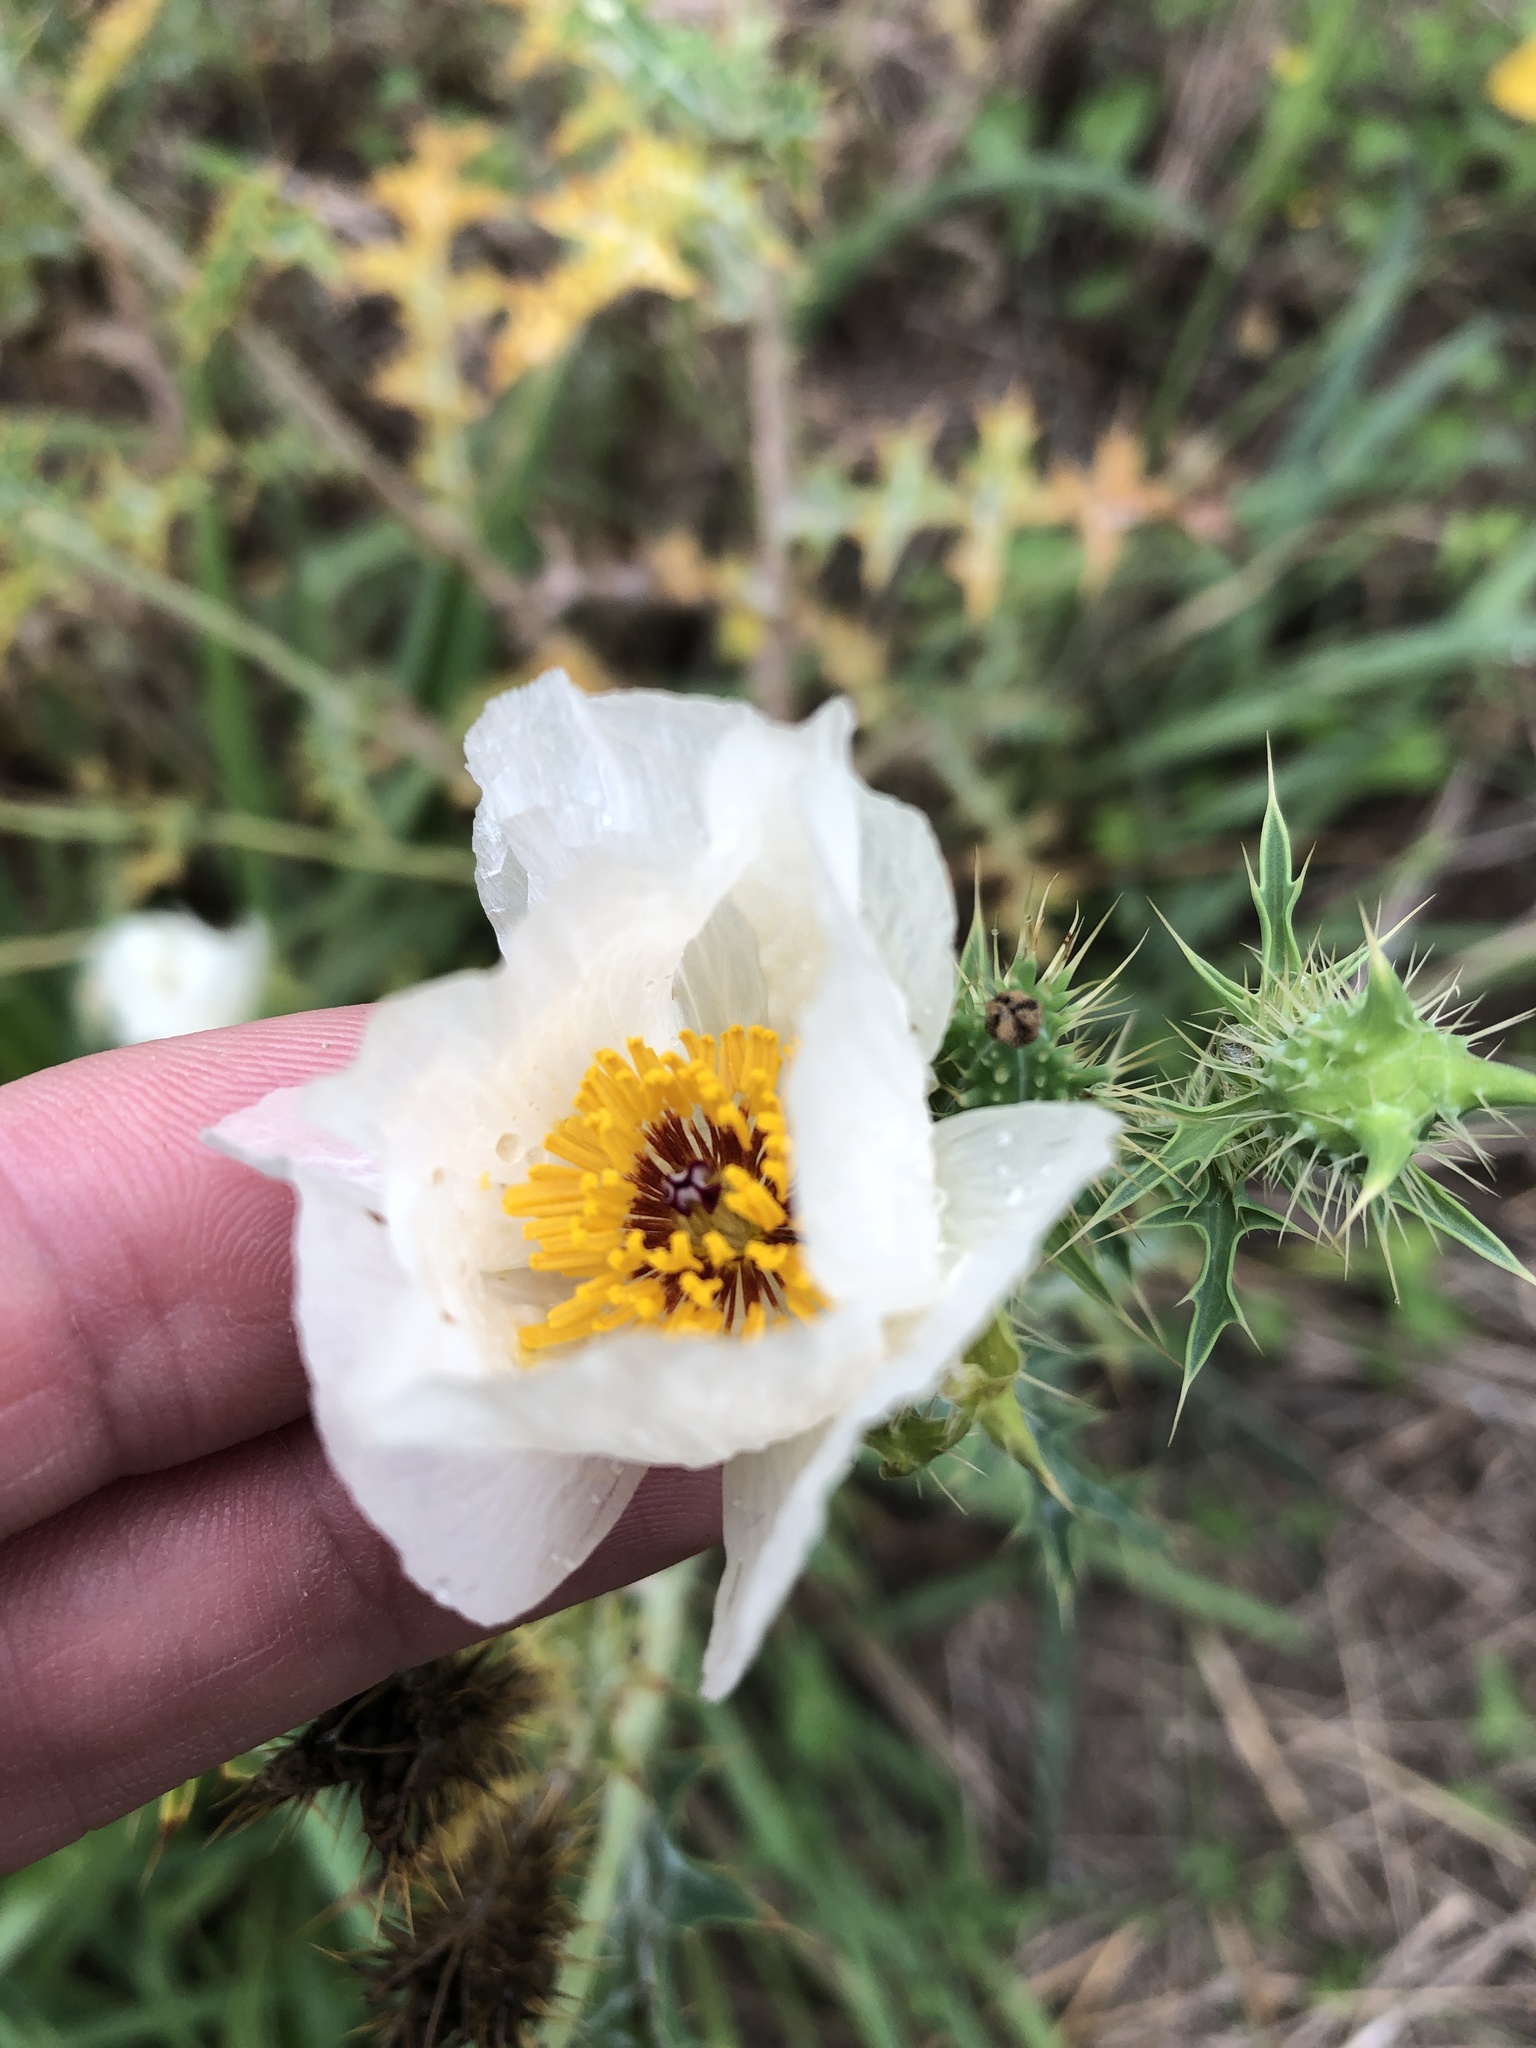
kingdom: Plantae
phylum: Tracheophyta
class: Magnoliopsida
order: Ranunculales
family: Papaveraceae
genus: Argemone
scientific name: Argemone sanguinea
